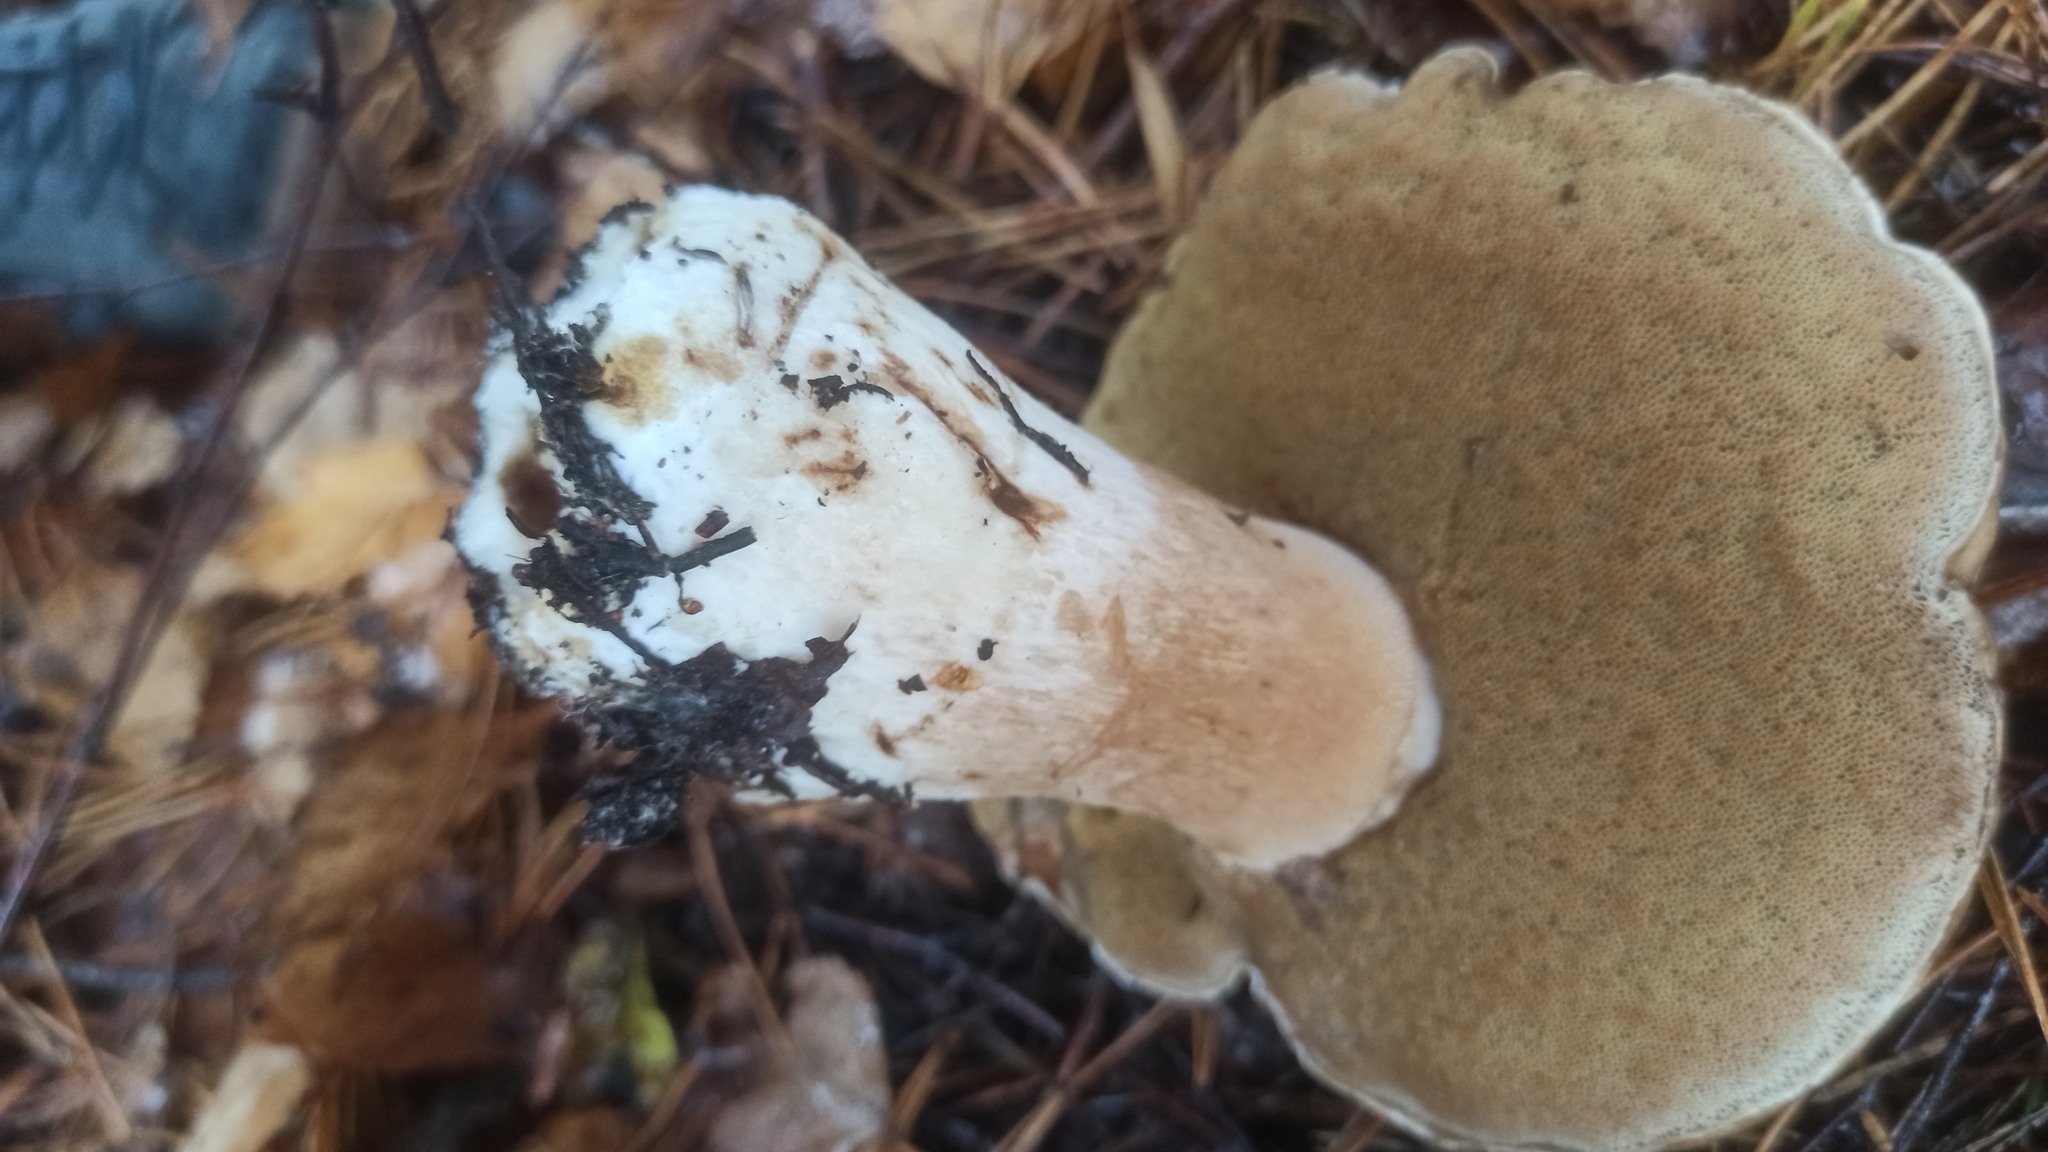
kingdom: Fungi
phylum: Basidiomycota
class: Agaricomycetes
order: Boletales
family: Boletaceae
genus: Boletus
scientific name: Boletus edulis
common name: Cep
